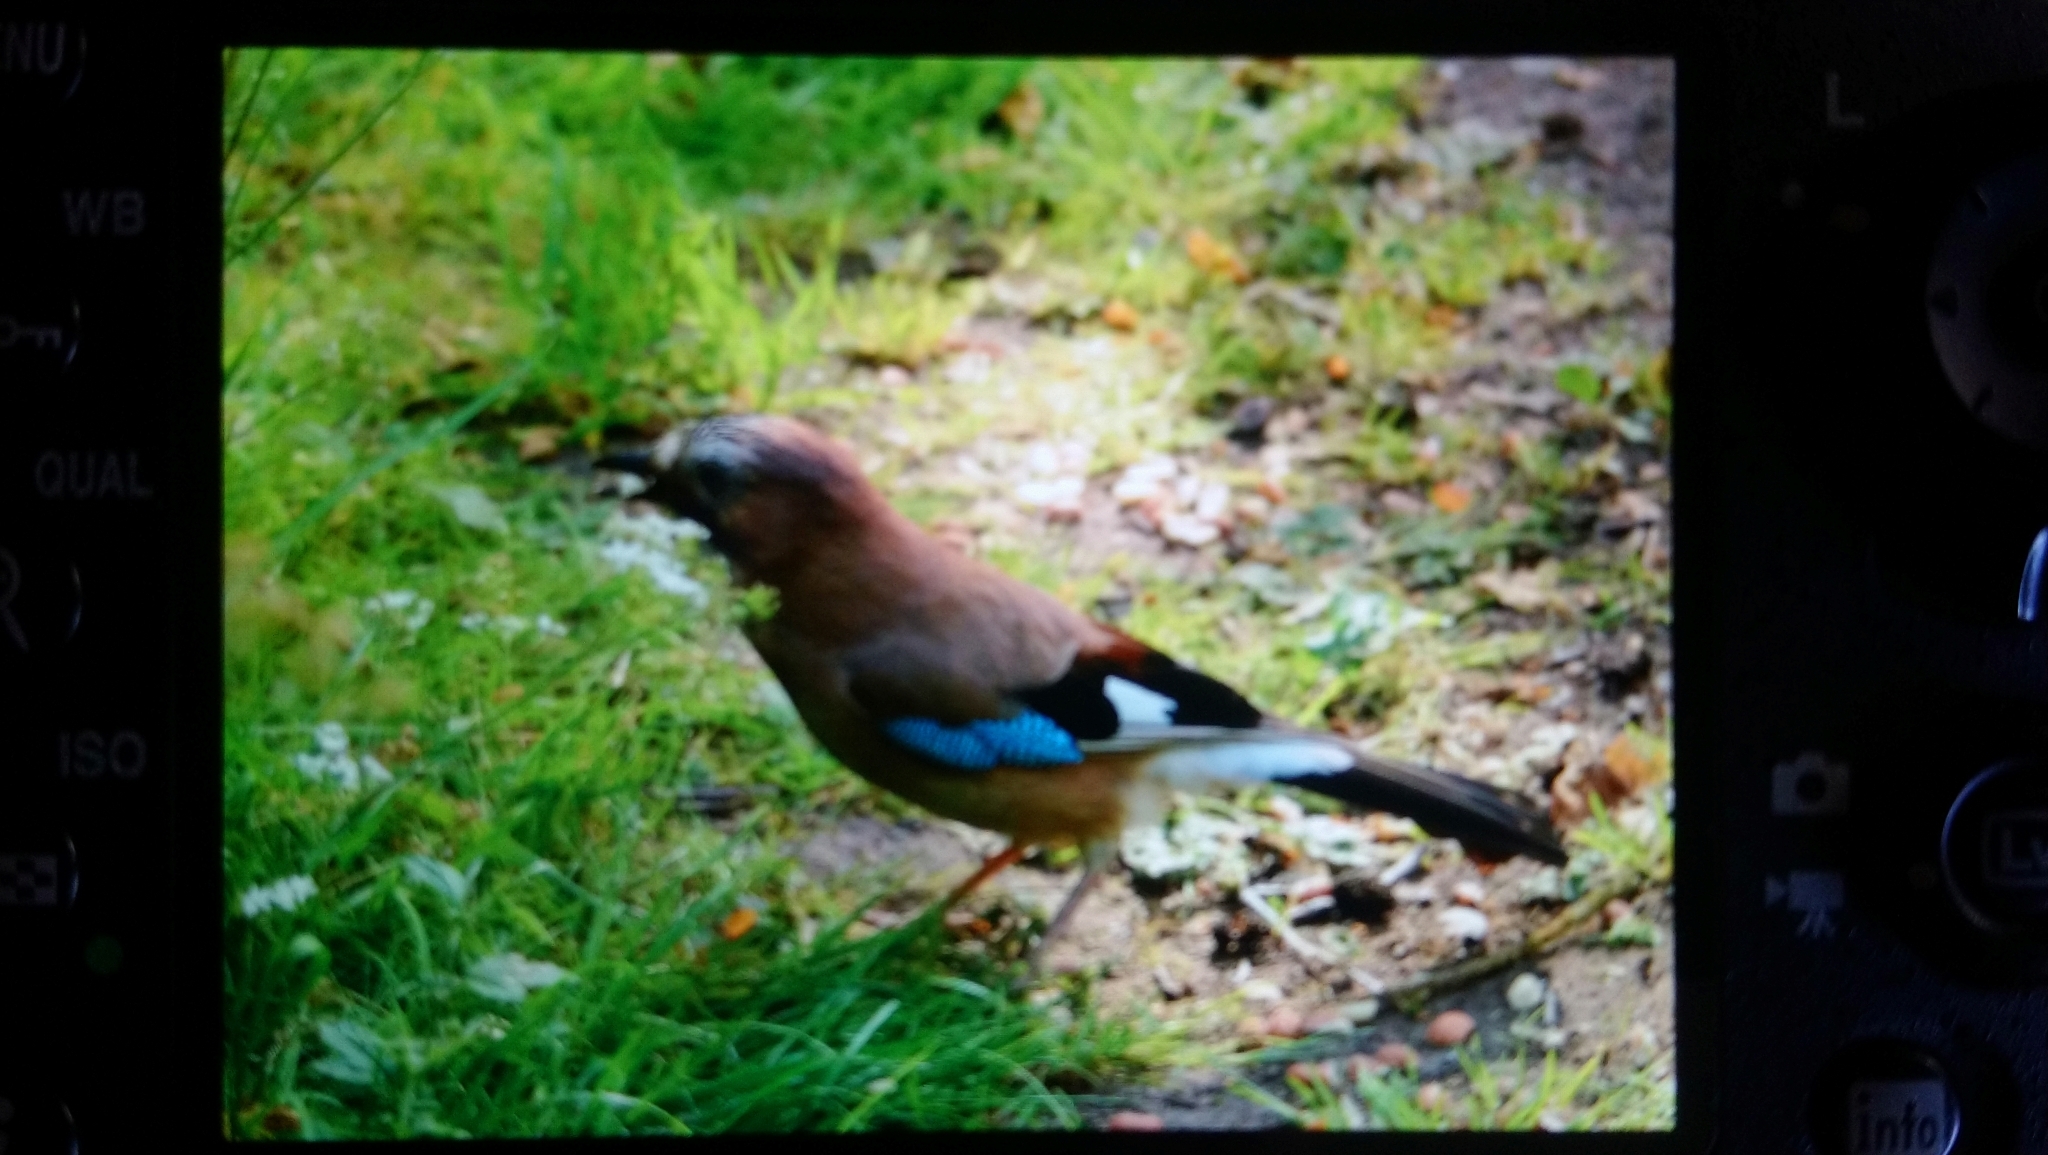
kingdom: Animalia
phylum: Chordata
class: Aves
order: Passeriformes
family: Corvidae
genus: Garrulus
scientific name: Garrulus glandarius
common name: Eurasian jay
